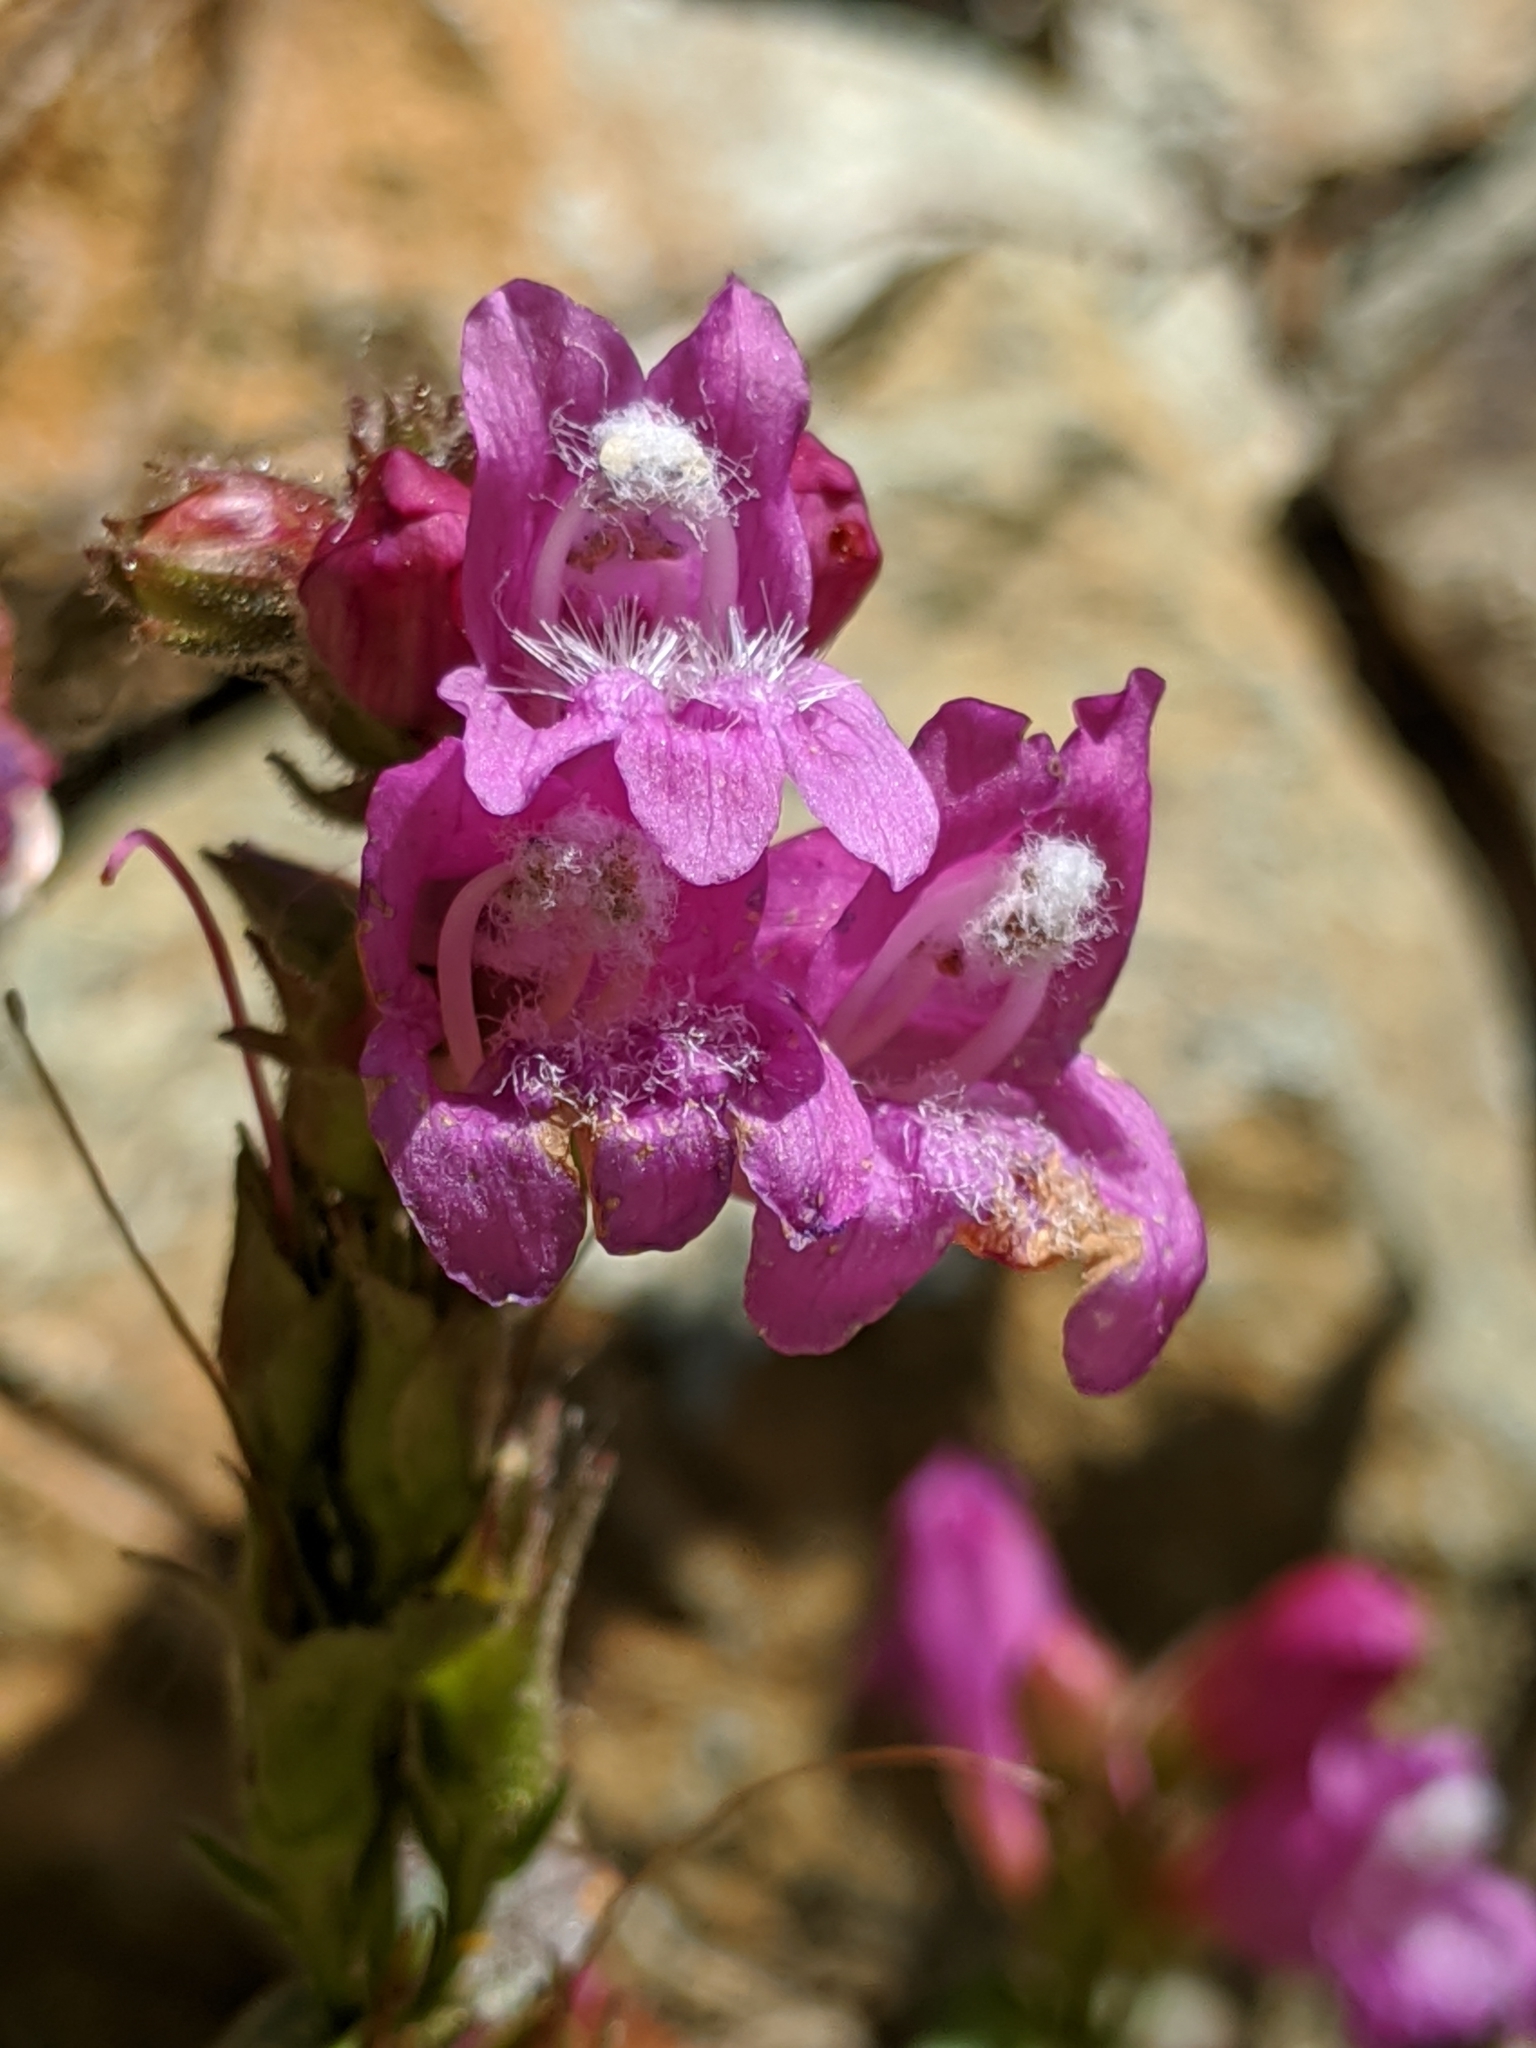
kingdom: Plantae
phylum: Tracheophyta
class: Magnoliopsida
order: Lamiales
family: Plantaginaceae
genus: Penstemon
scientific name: Penstemon newberryi
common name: Mountain-pride
